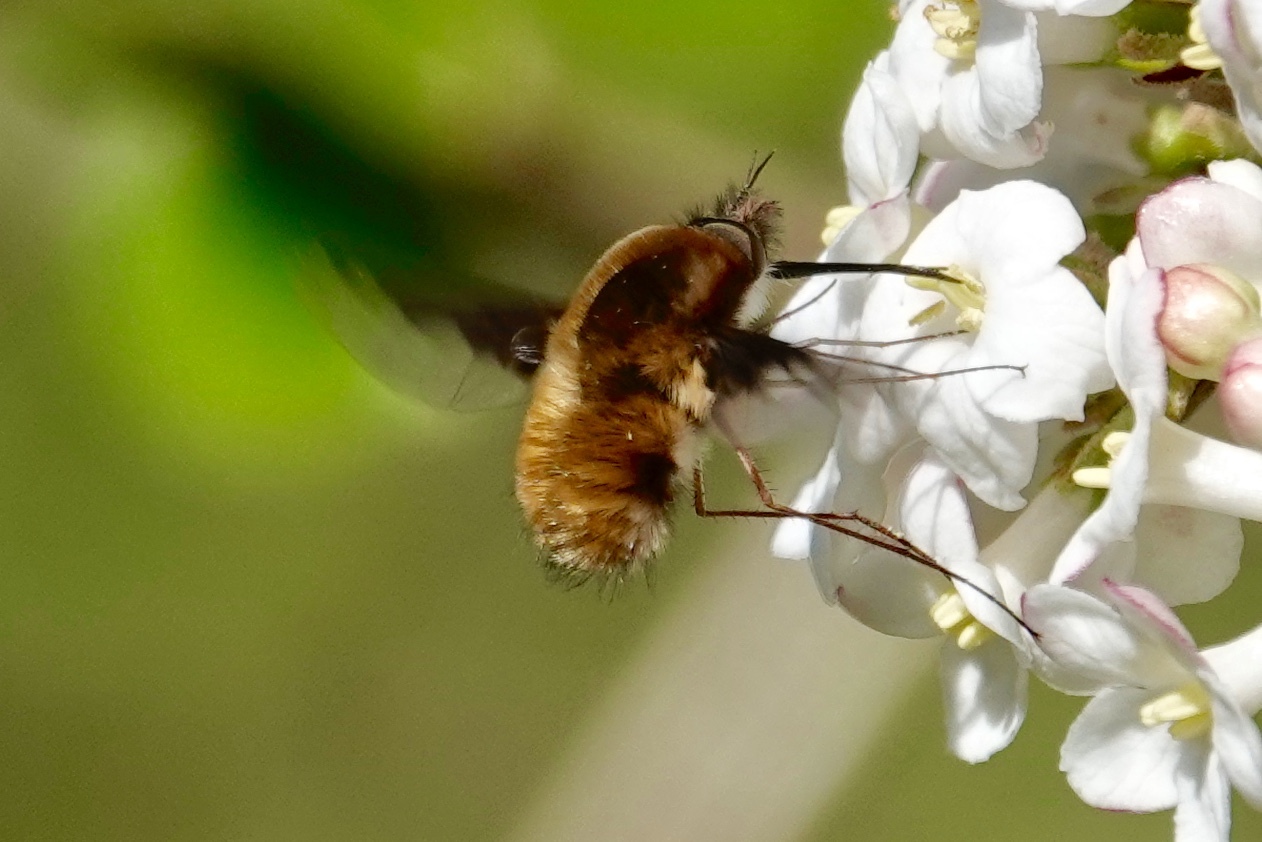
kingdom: Animalia
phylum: Arthropoda
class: Insecta
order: Diptera
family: Bombyliidae
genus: Bombylius
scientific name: Bombylius major
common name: Bee fly
